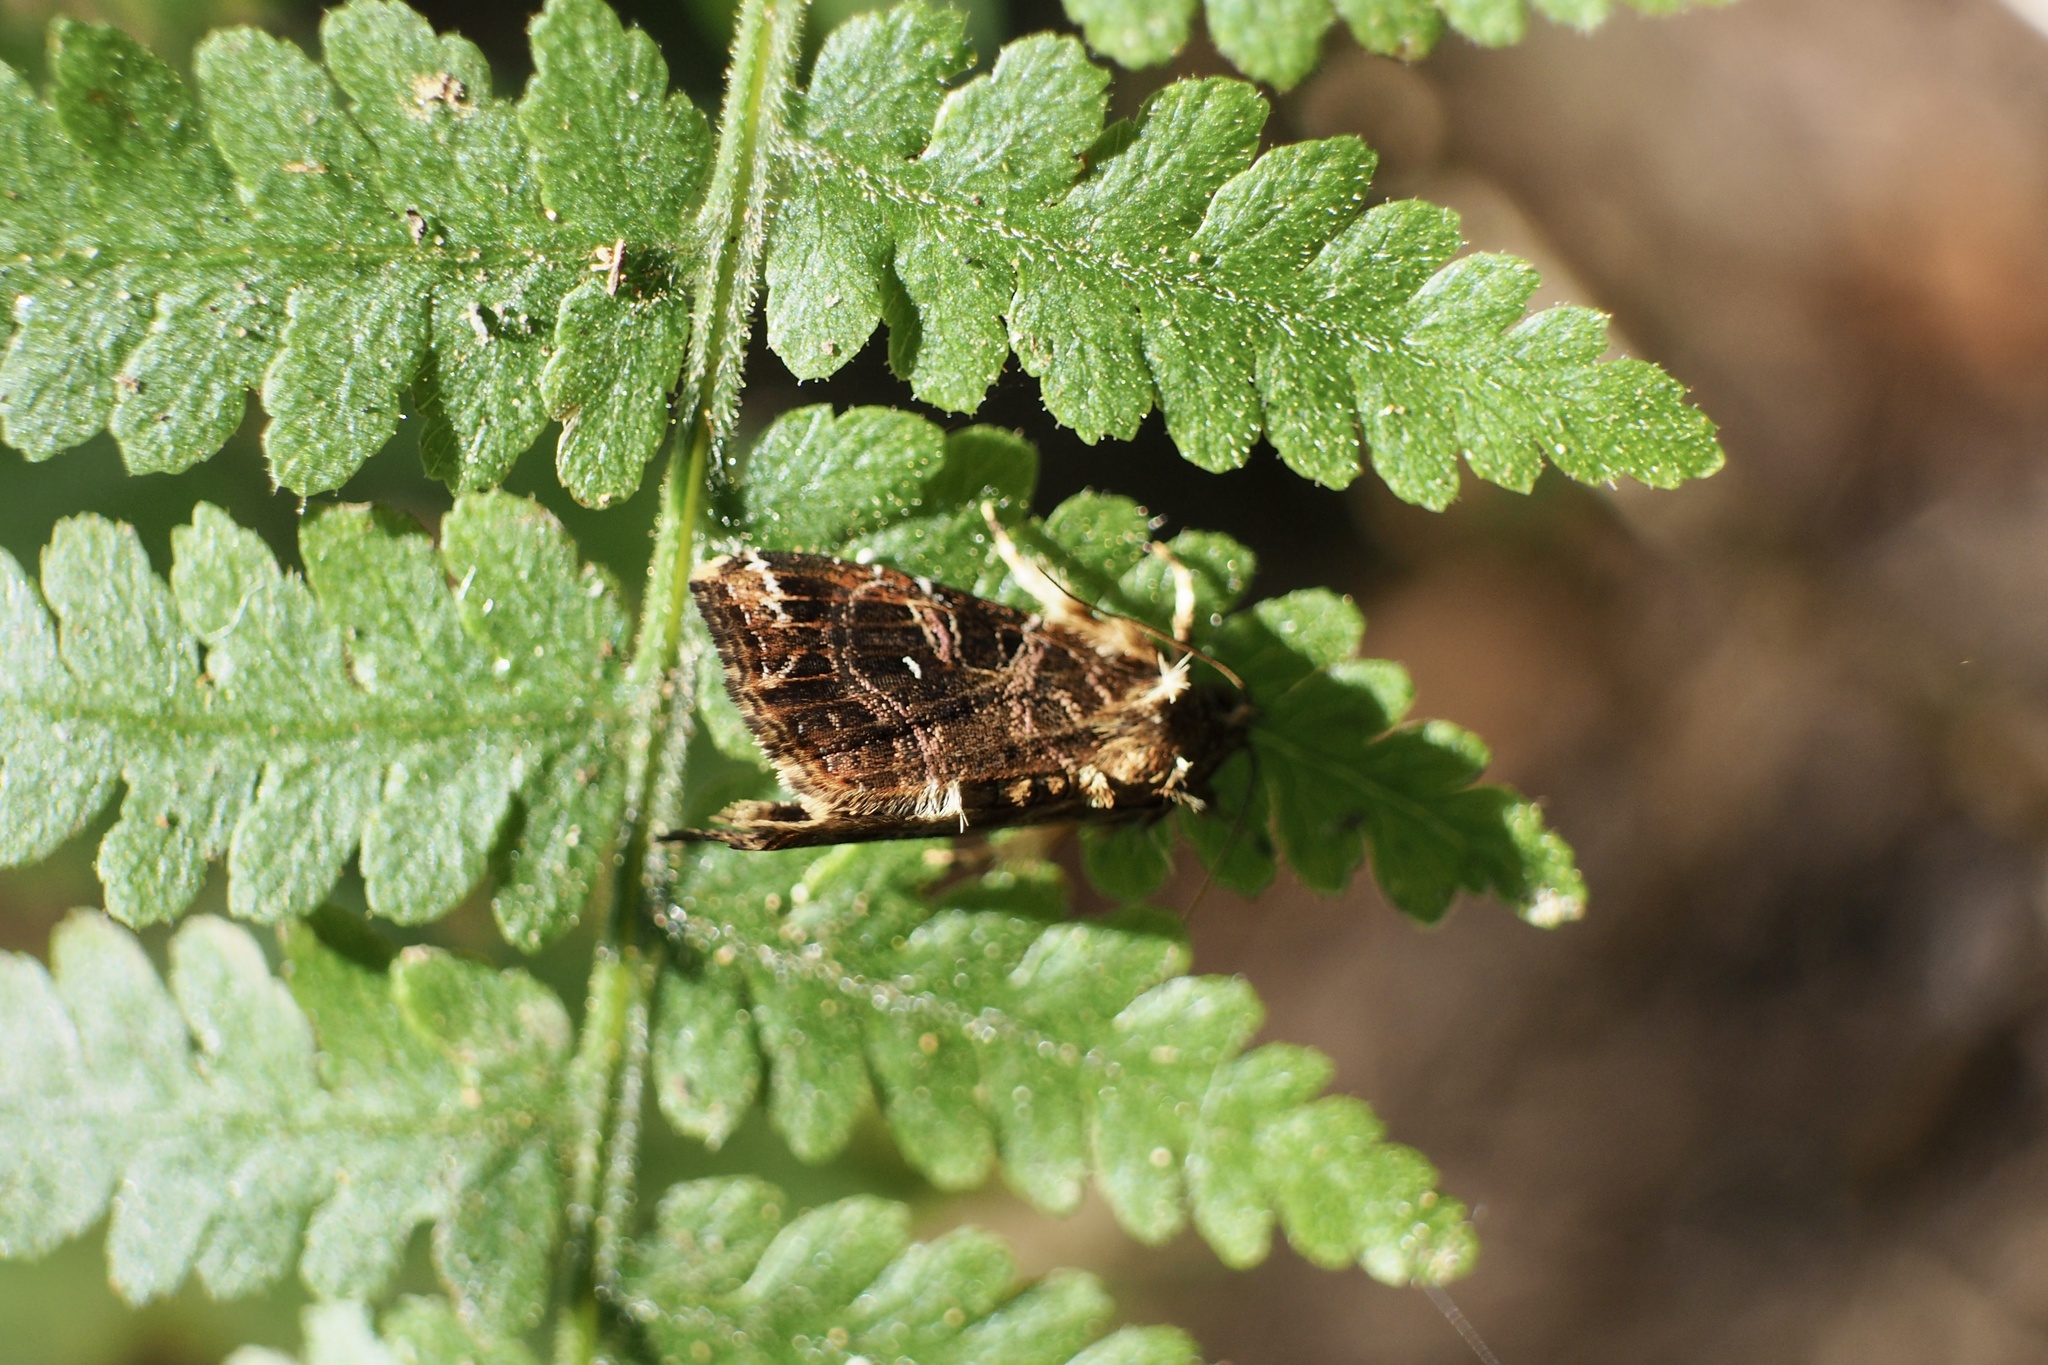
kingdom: Animalia
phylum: Arthropoda
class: Insecta
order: Lepidoptera
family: Noctuidae
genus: Callopistria
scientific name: Callopistria pulchrilinea
